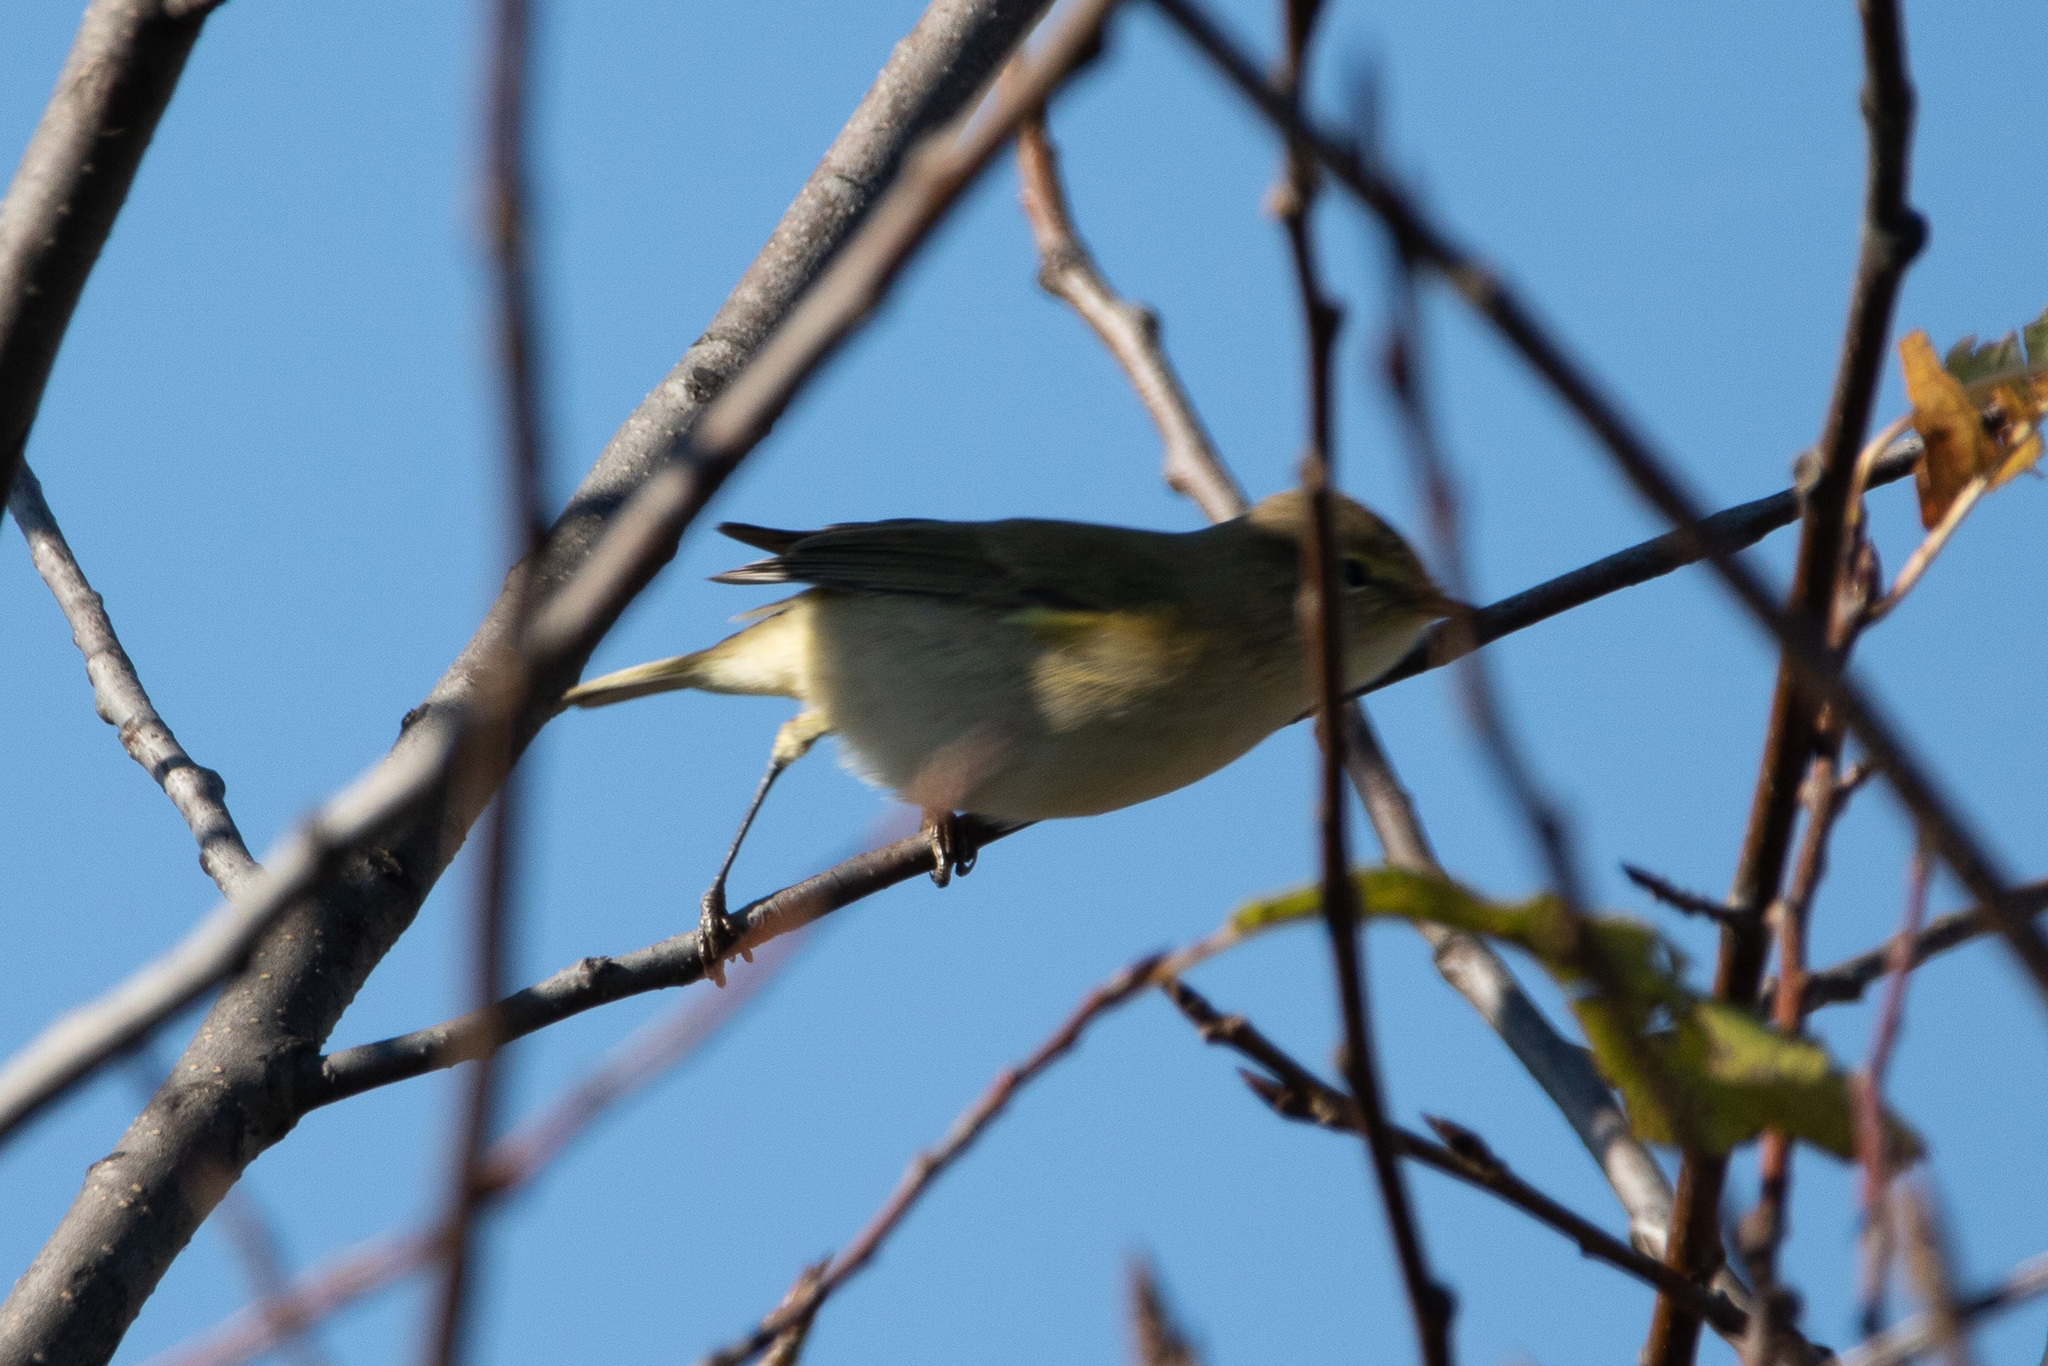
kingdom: Animalia
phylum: Chordata
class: Aves
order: Passeriformes
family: Phylloscopidae
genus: Phylloscopus
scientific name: Phylloscopus collybita
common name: Common chiffchaff
